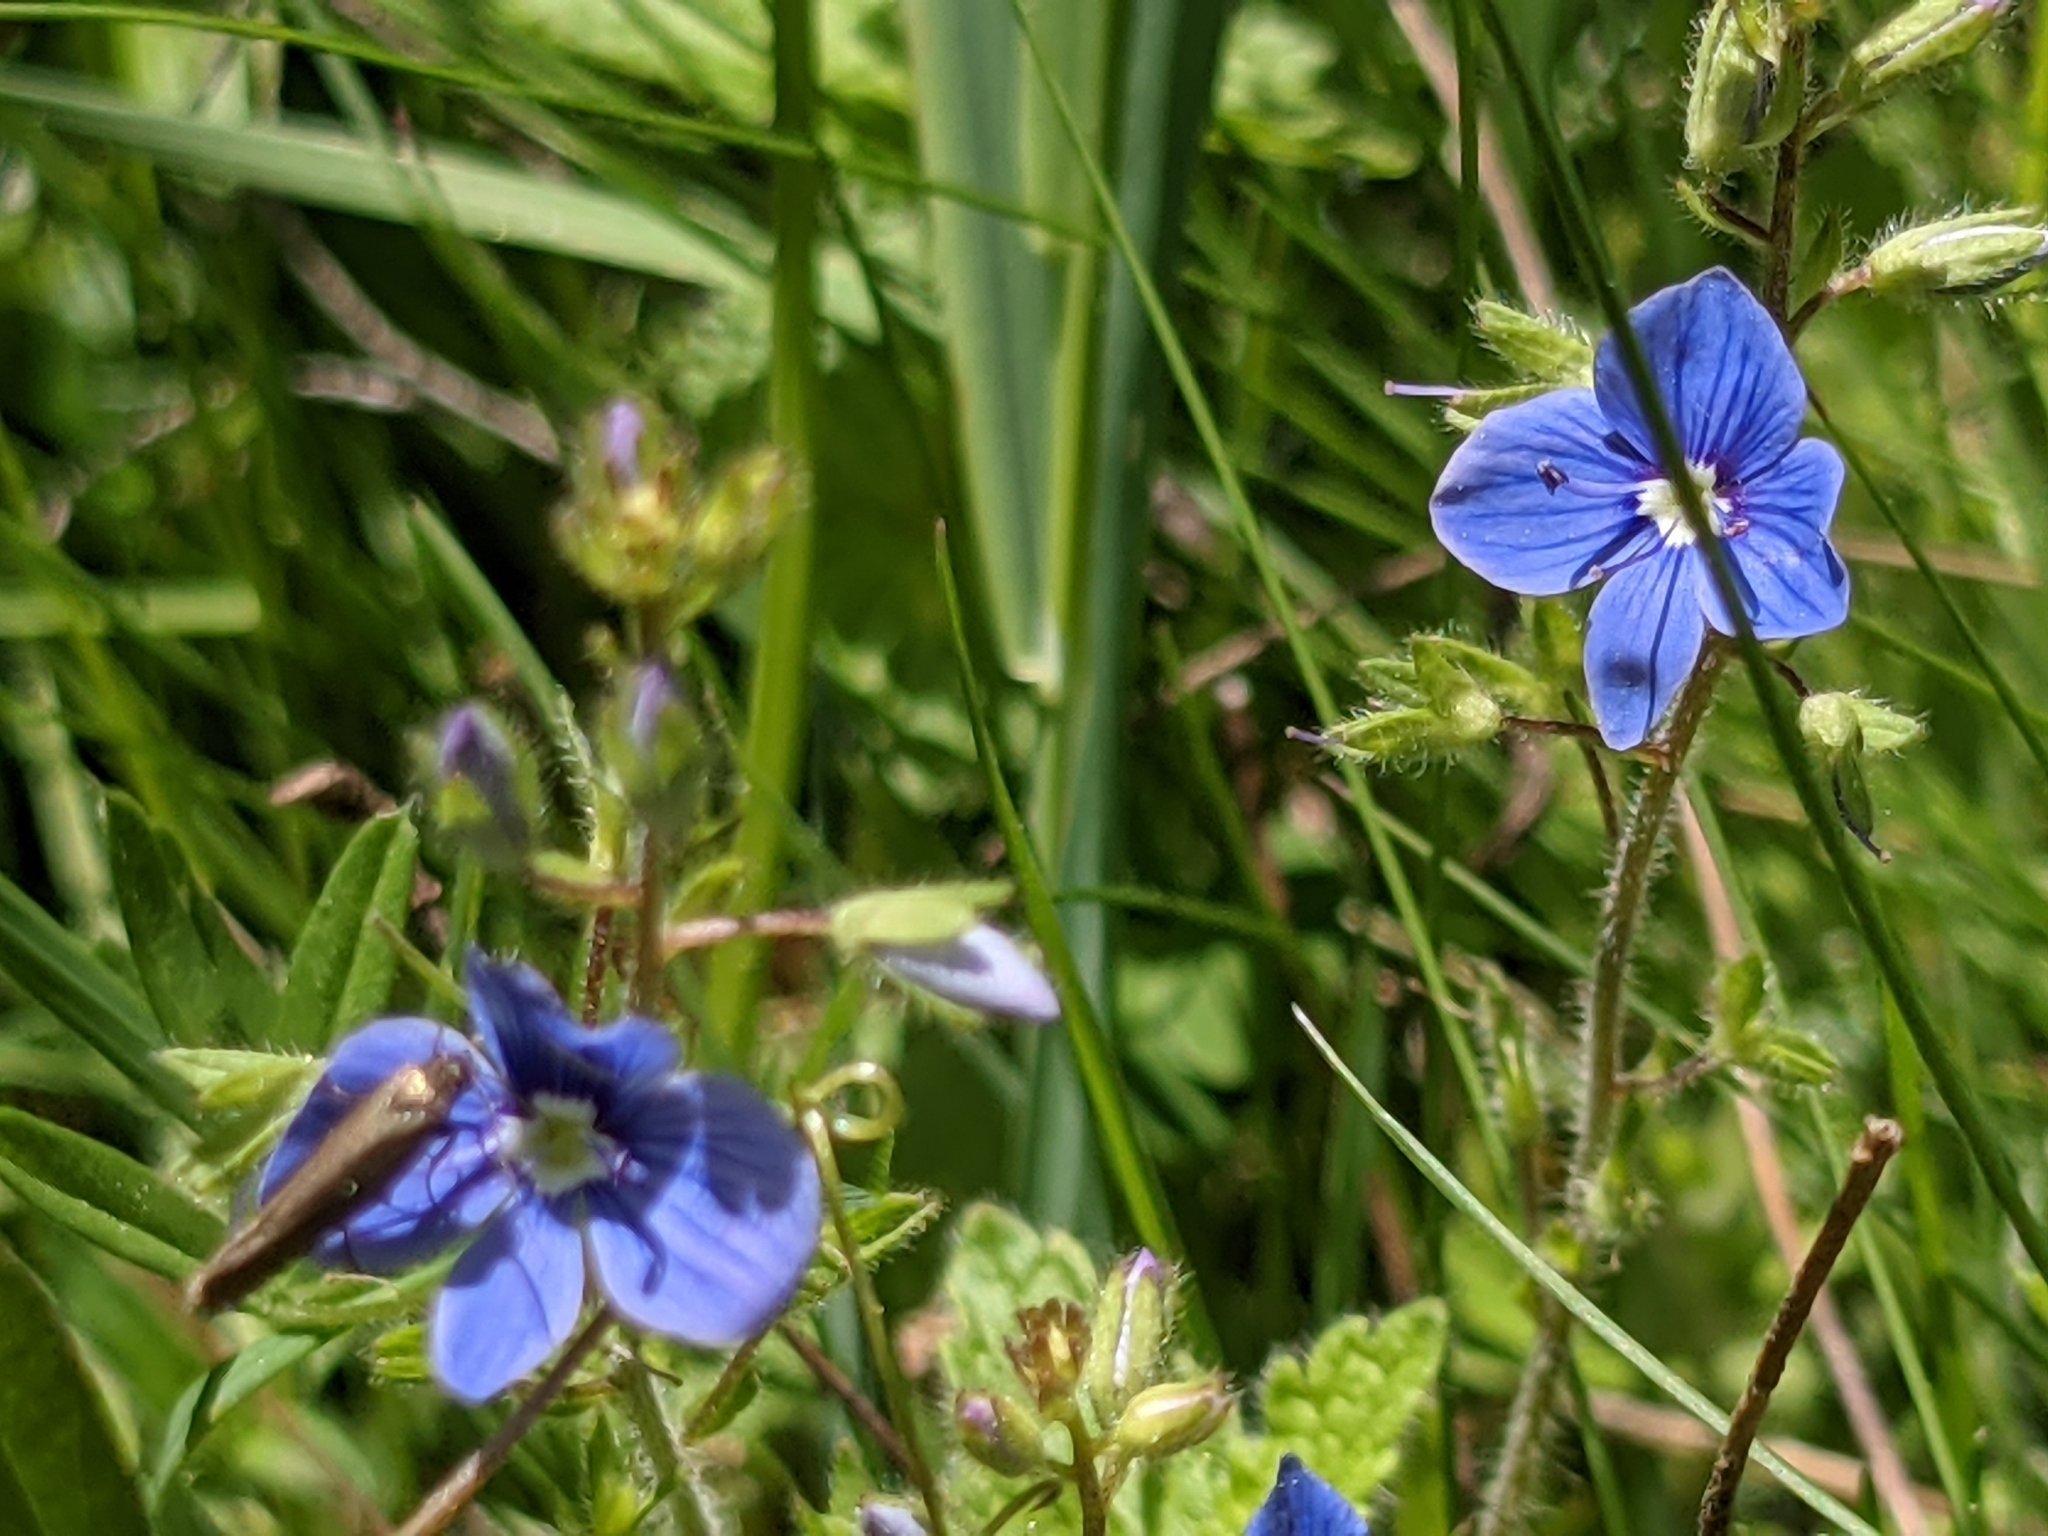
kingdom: Plantae
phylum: Tracheophyta
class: Magnoliopsida
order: Lamiales
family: Plantaginaceae
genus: Veronica
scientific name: Veronica chamaedrys
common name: Germander speedwell
